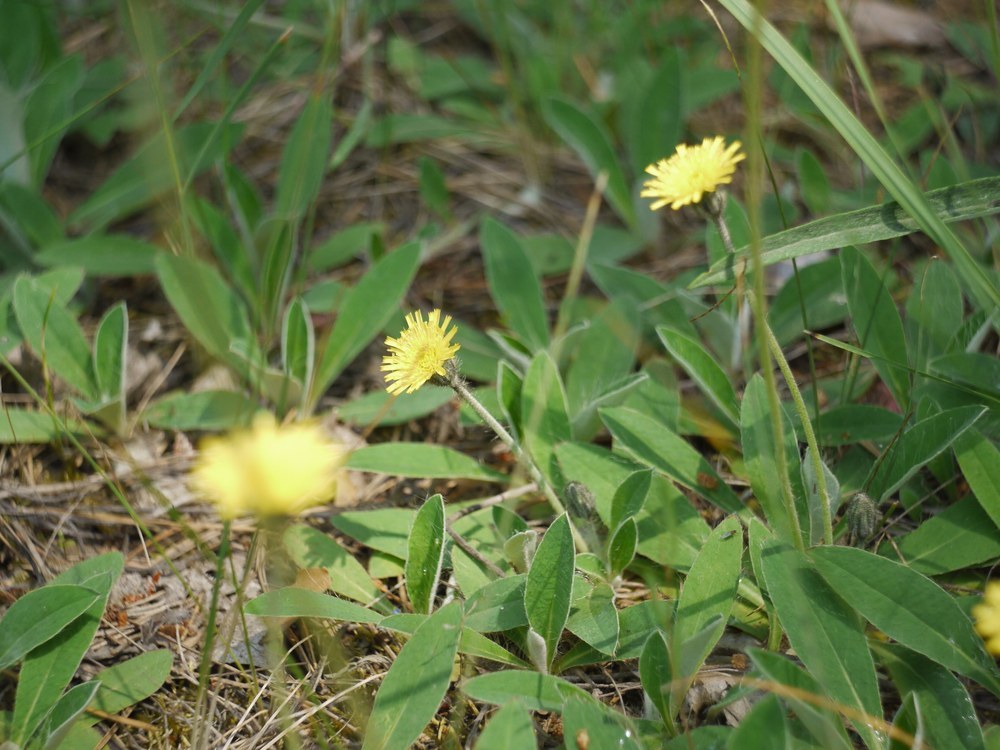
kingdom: Plantae
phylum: Tracheophyta
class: Magnoliopsida
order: Asterales
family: Asteraceae
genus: Pilosella
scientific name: Pilosella officinarum
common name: Mouse-ear hawkweed
